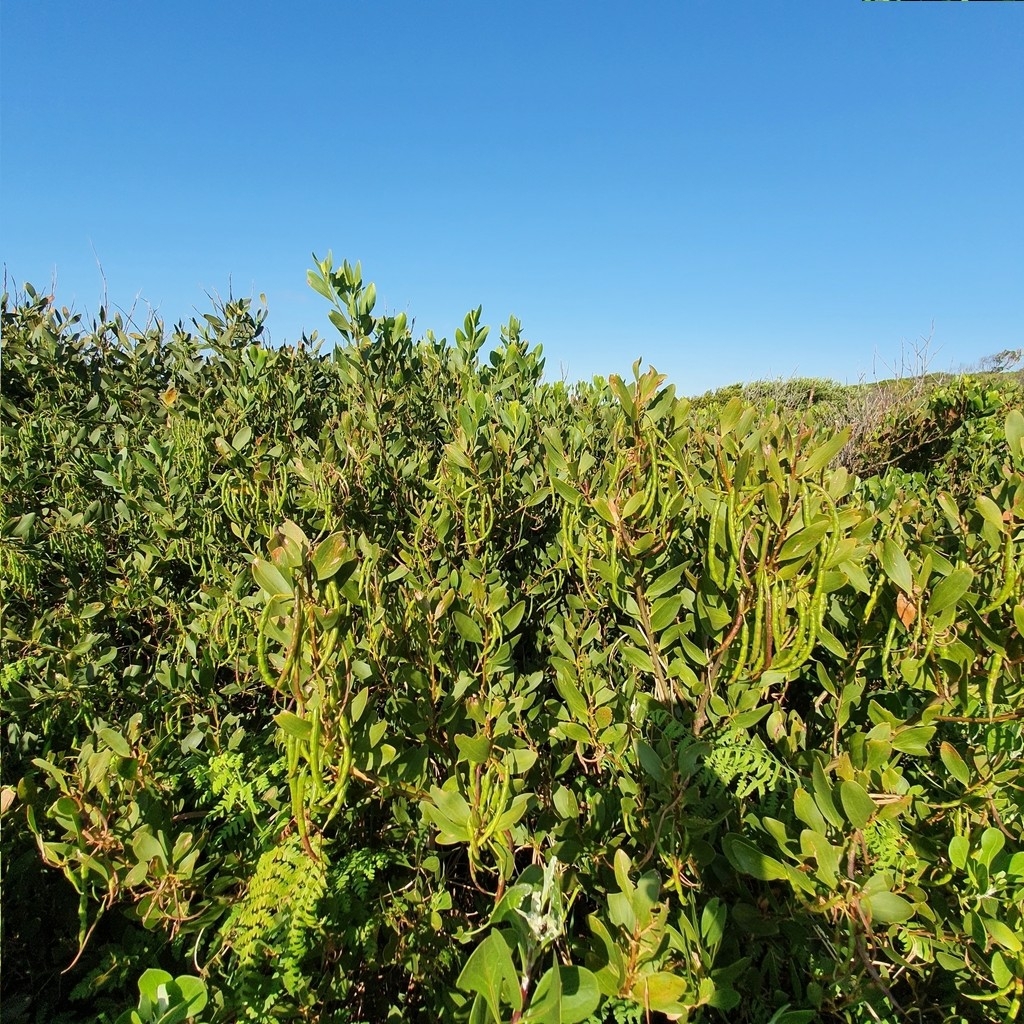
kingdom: Plantae
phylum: Tracheophyta
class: Magnoliopsida
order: Fabales
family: Fabaceae
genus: Acacia
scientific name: Acacia longifolia
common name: Sydney golden wattle
